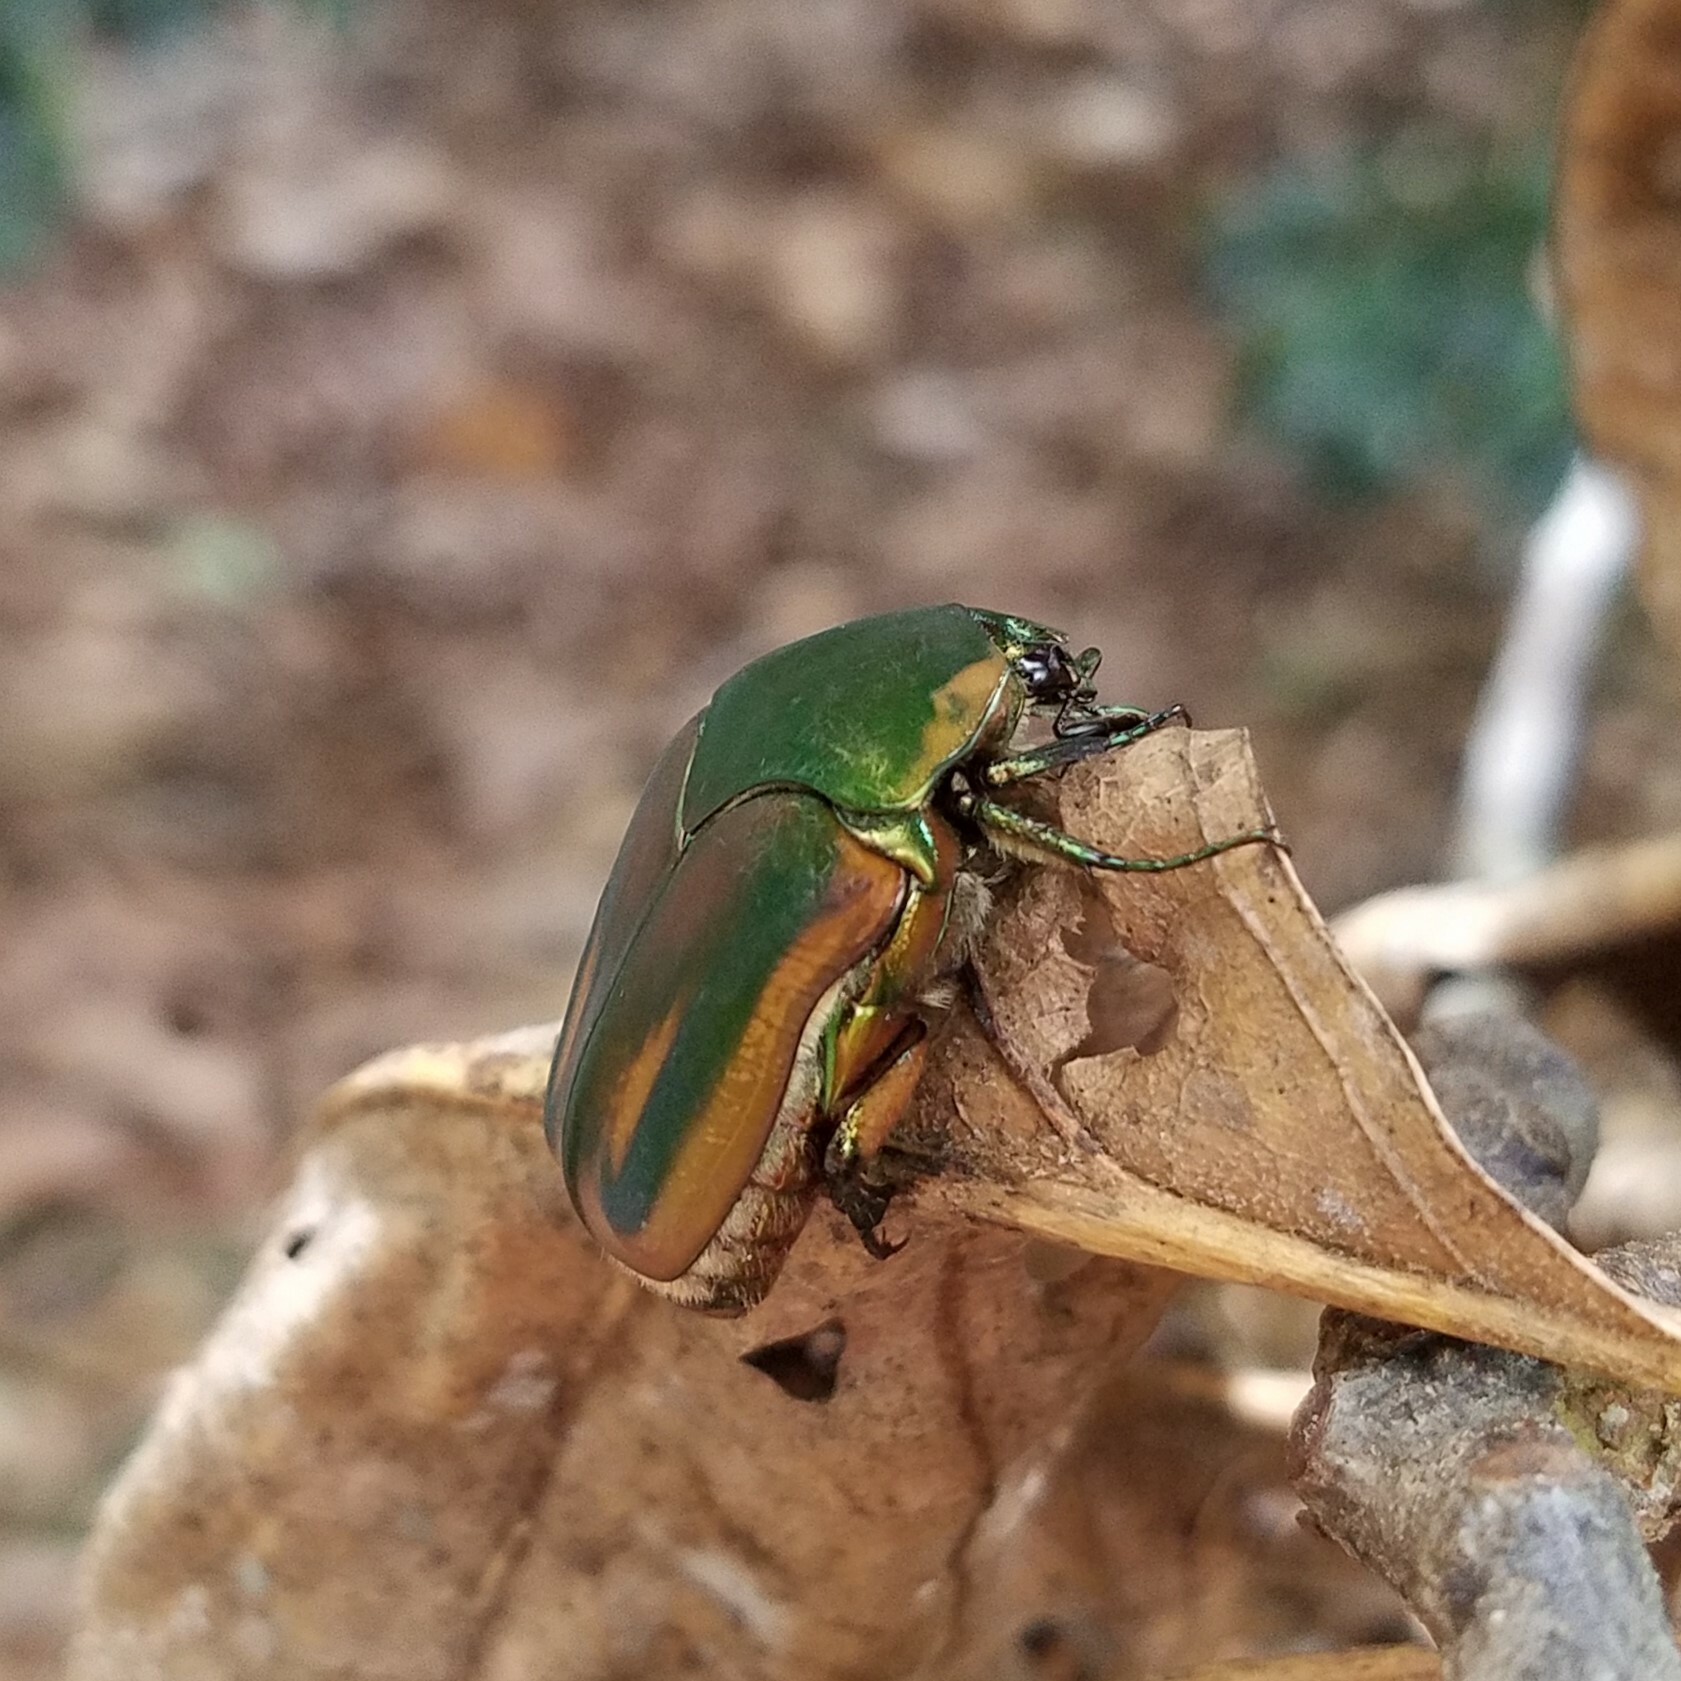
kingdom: Animalia
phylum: Arthropoda
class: Insecta
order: Coleoptera
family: Scarabaeidae
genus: Cotinis
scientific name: Cotinis nitida
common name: Common green june beetle
